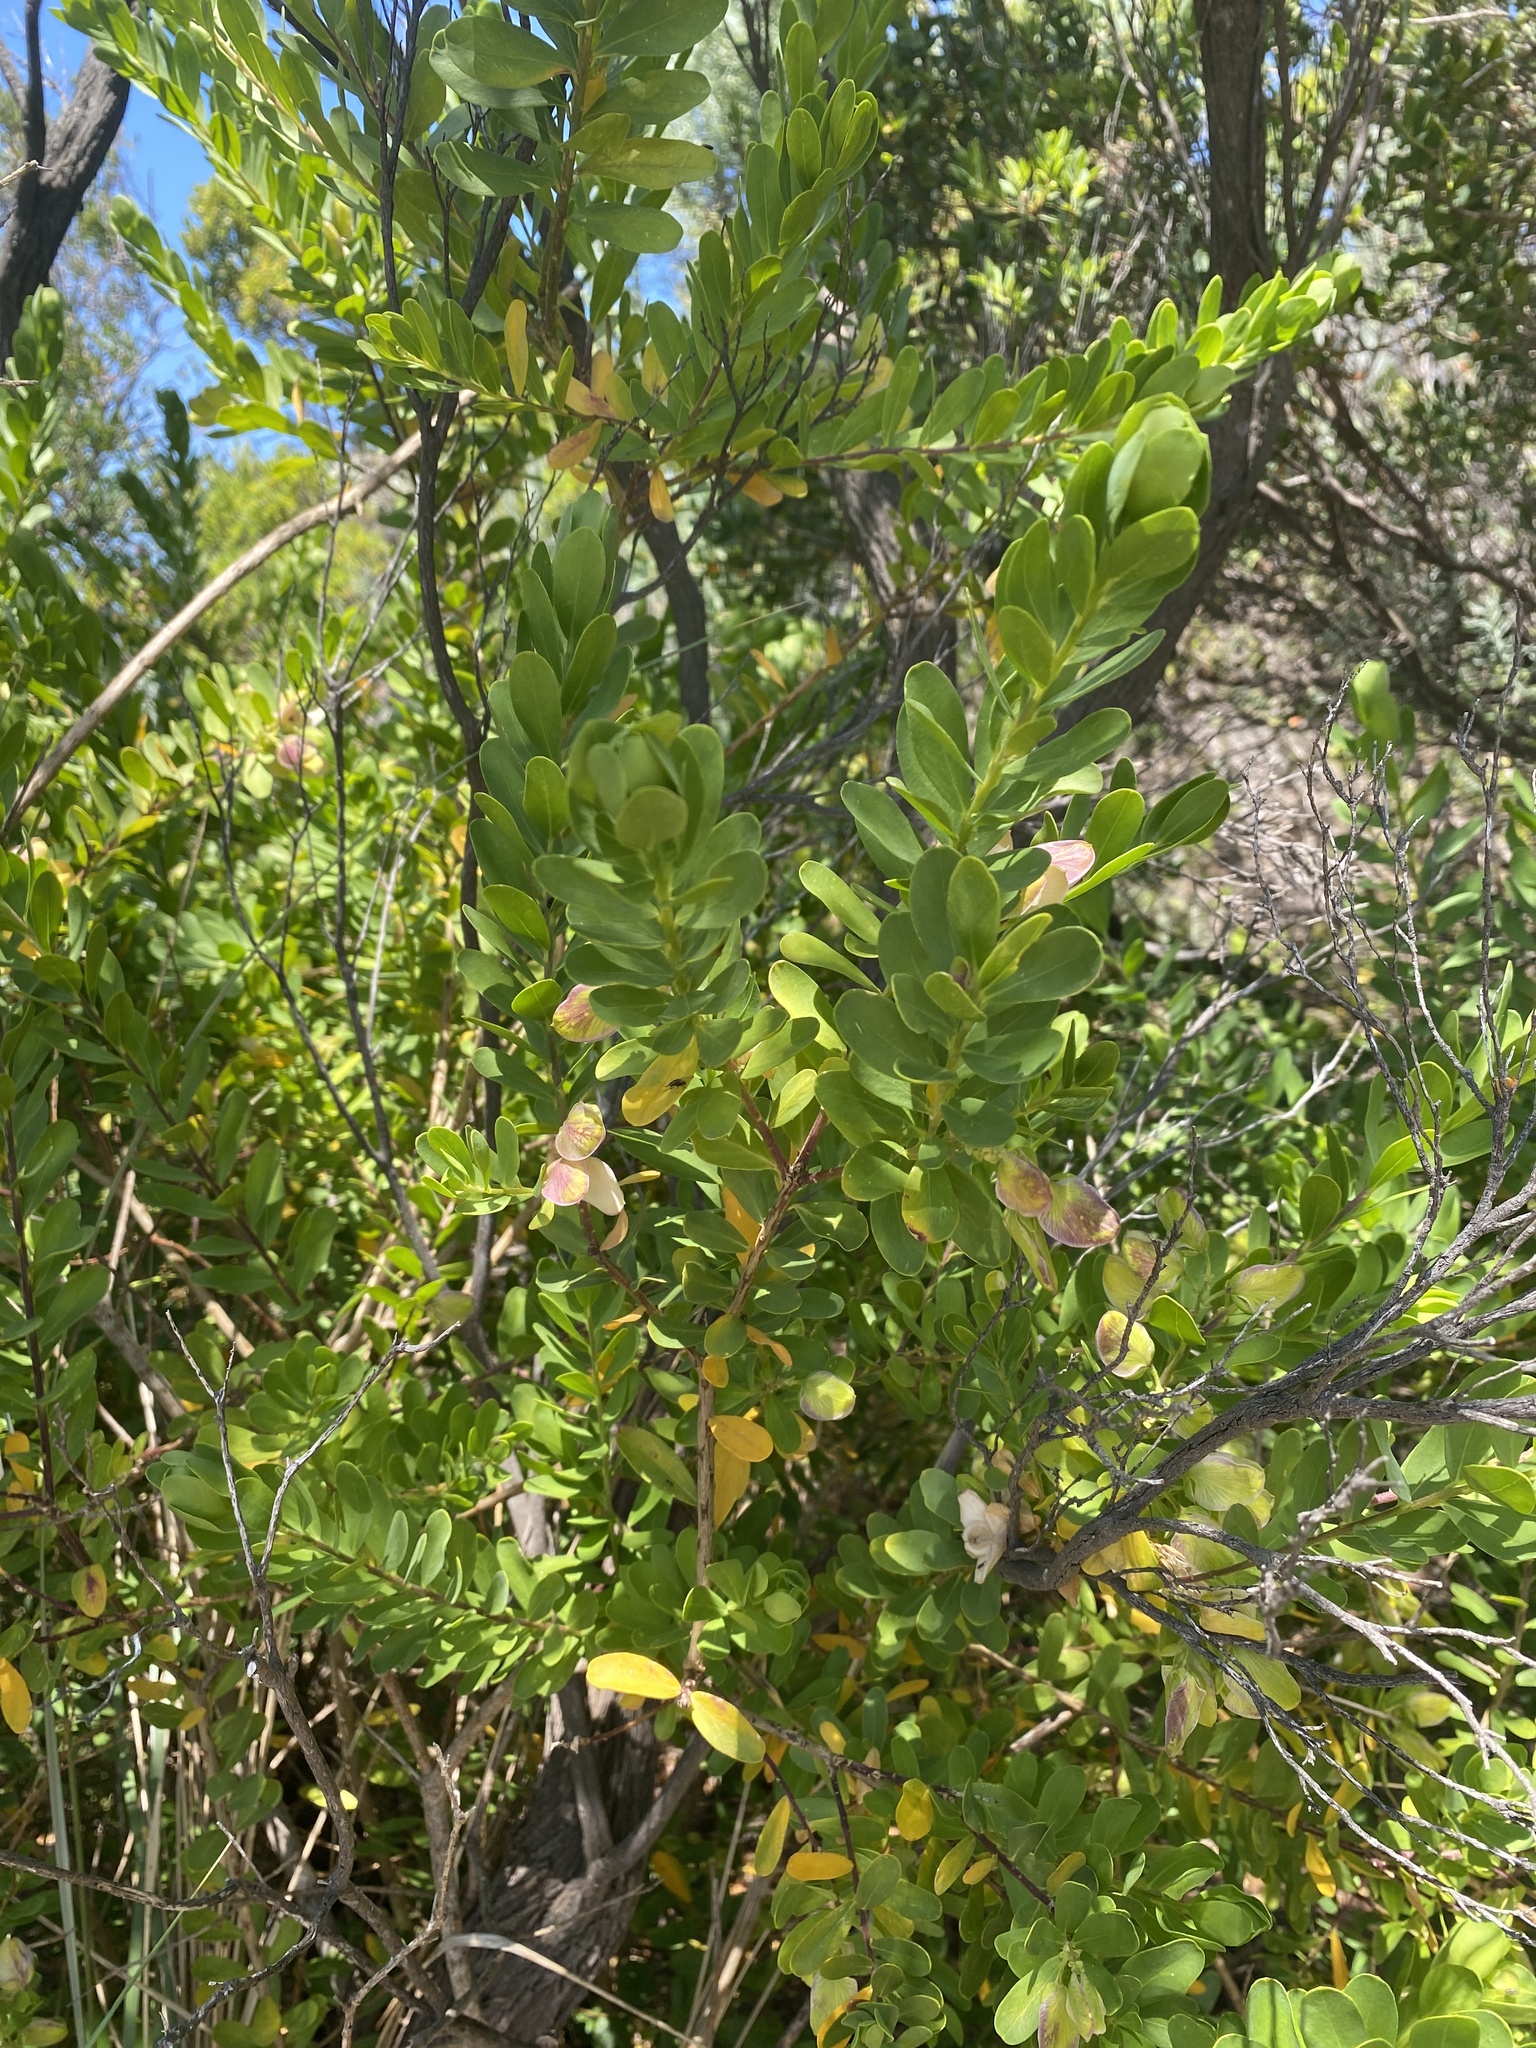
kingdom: Plantae
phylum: Tracheophyta
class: Magnoliopsida
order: Fabales
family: Polygalaceae
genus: Polygala
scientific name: Polygala myrtifolia
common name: Myrtle-leaf milkwort
